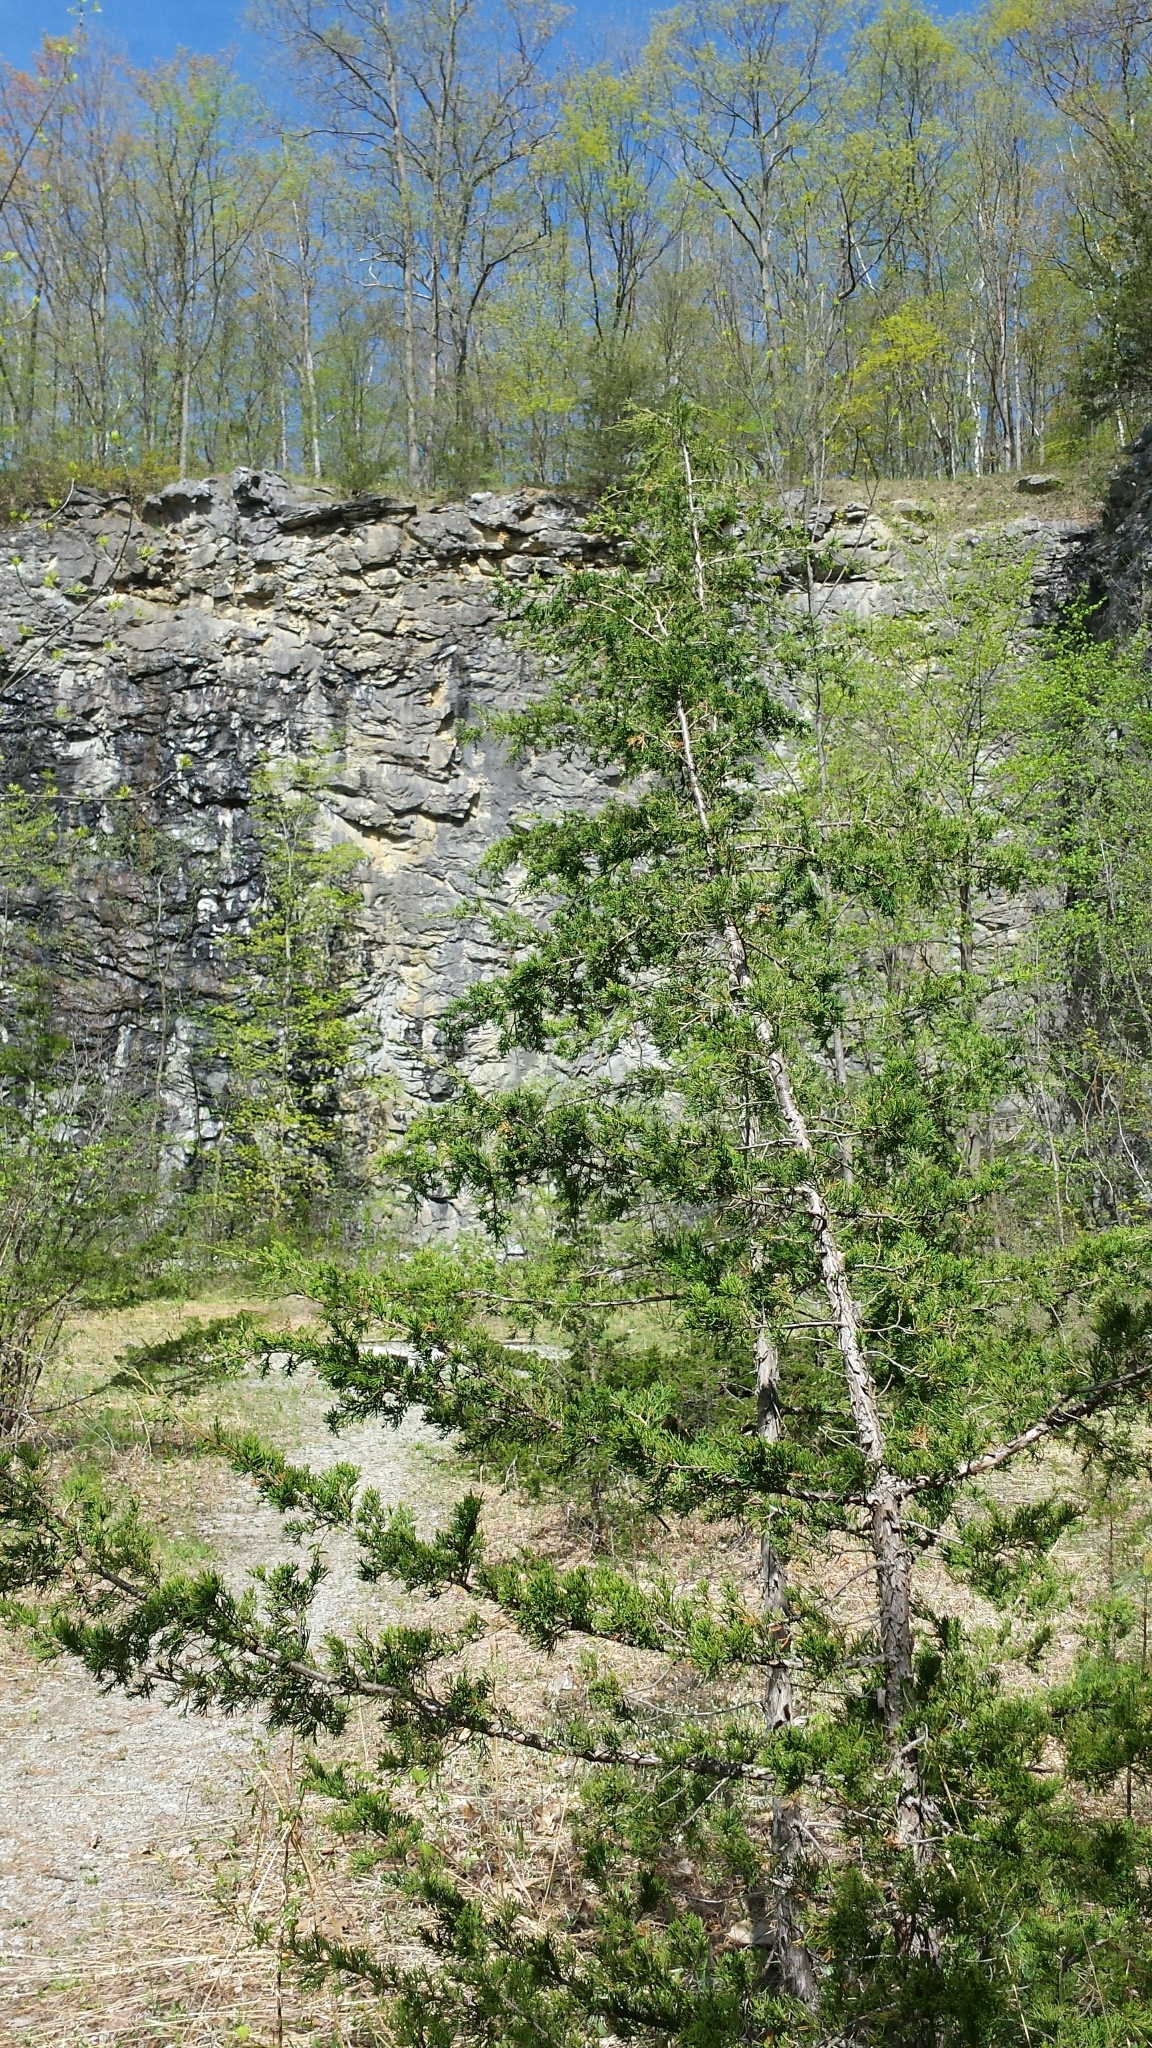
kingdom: Plantae
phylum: Tracheophyta
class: Pinopsida
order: Pinales
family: Cupressaceae
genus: Juniperus
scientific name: Juniperus virginiana
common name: Red juniper
